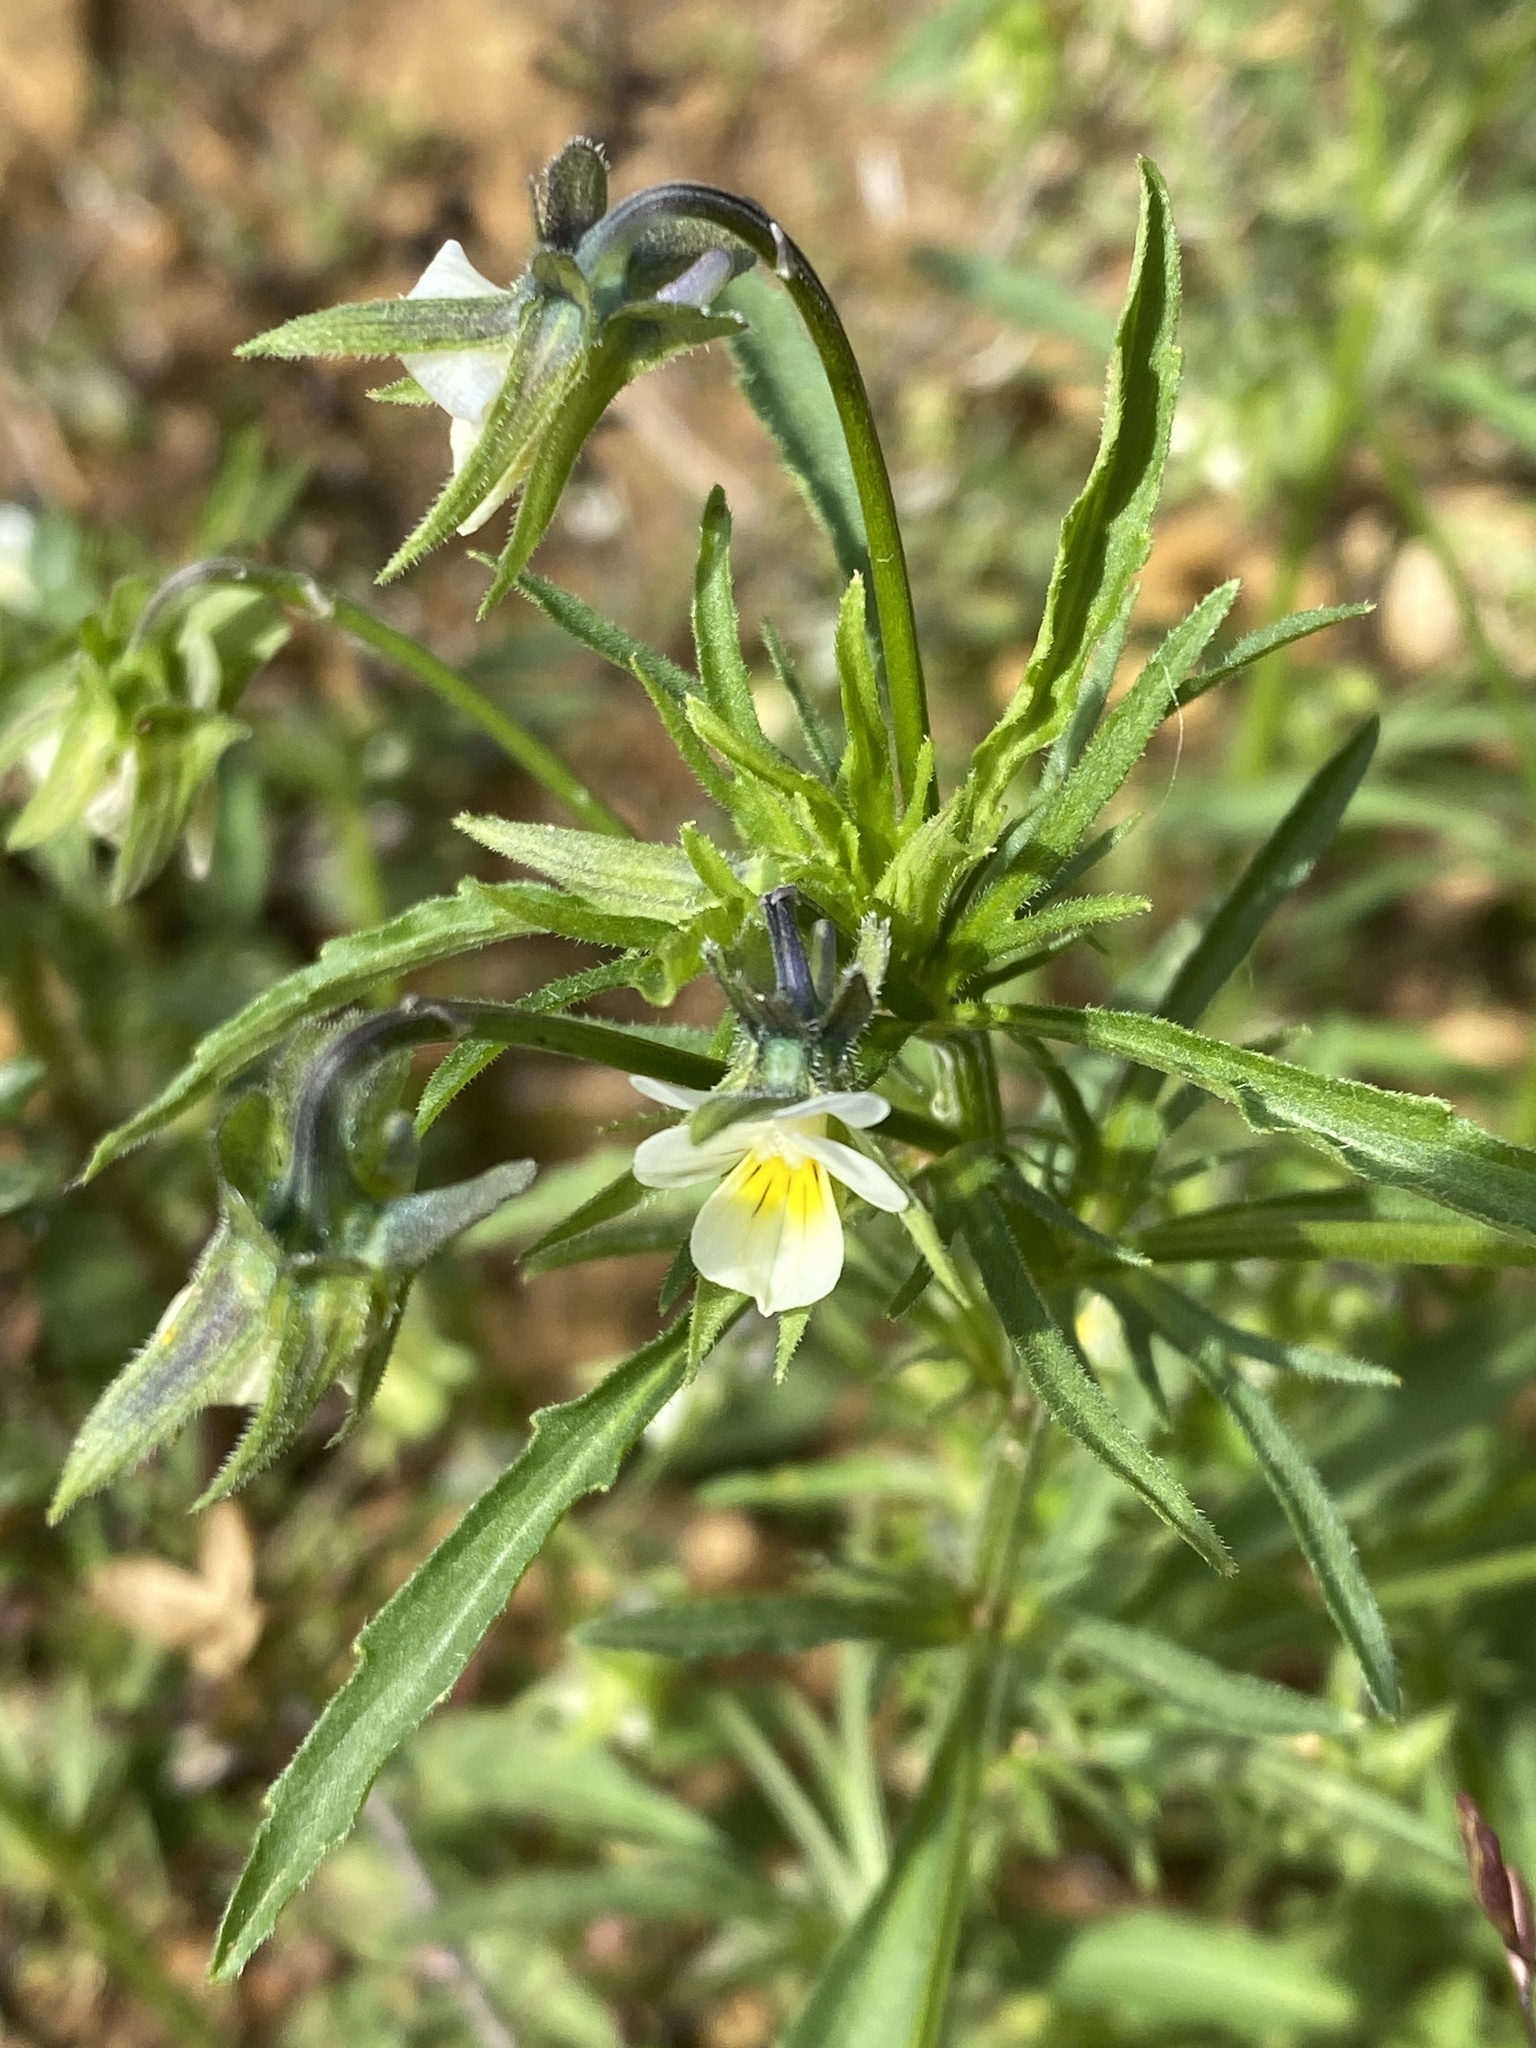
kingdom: Plantae
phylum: Tracheophyta
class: Magnoliopsida
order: Malpighiales
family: Violaceae
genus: Viola
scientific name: Viola arvensis
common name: Field pansy
